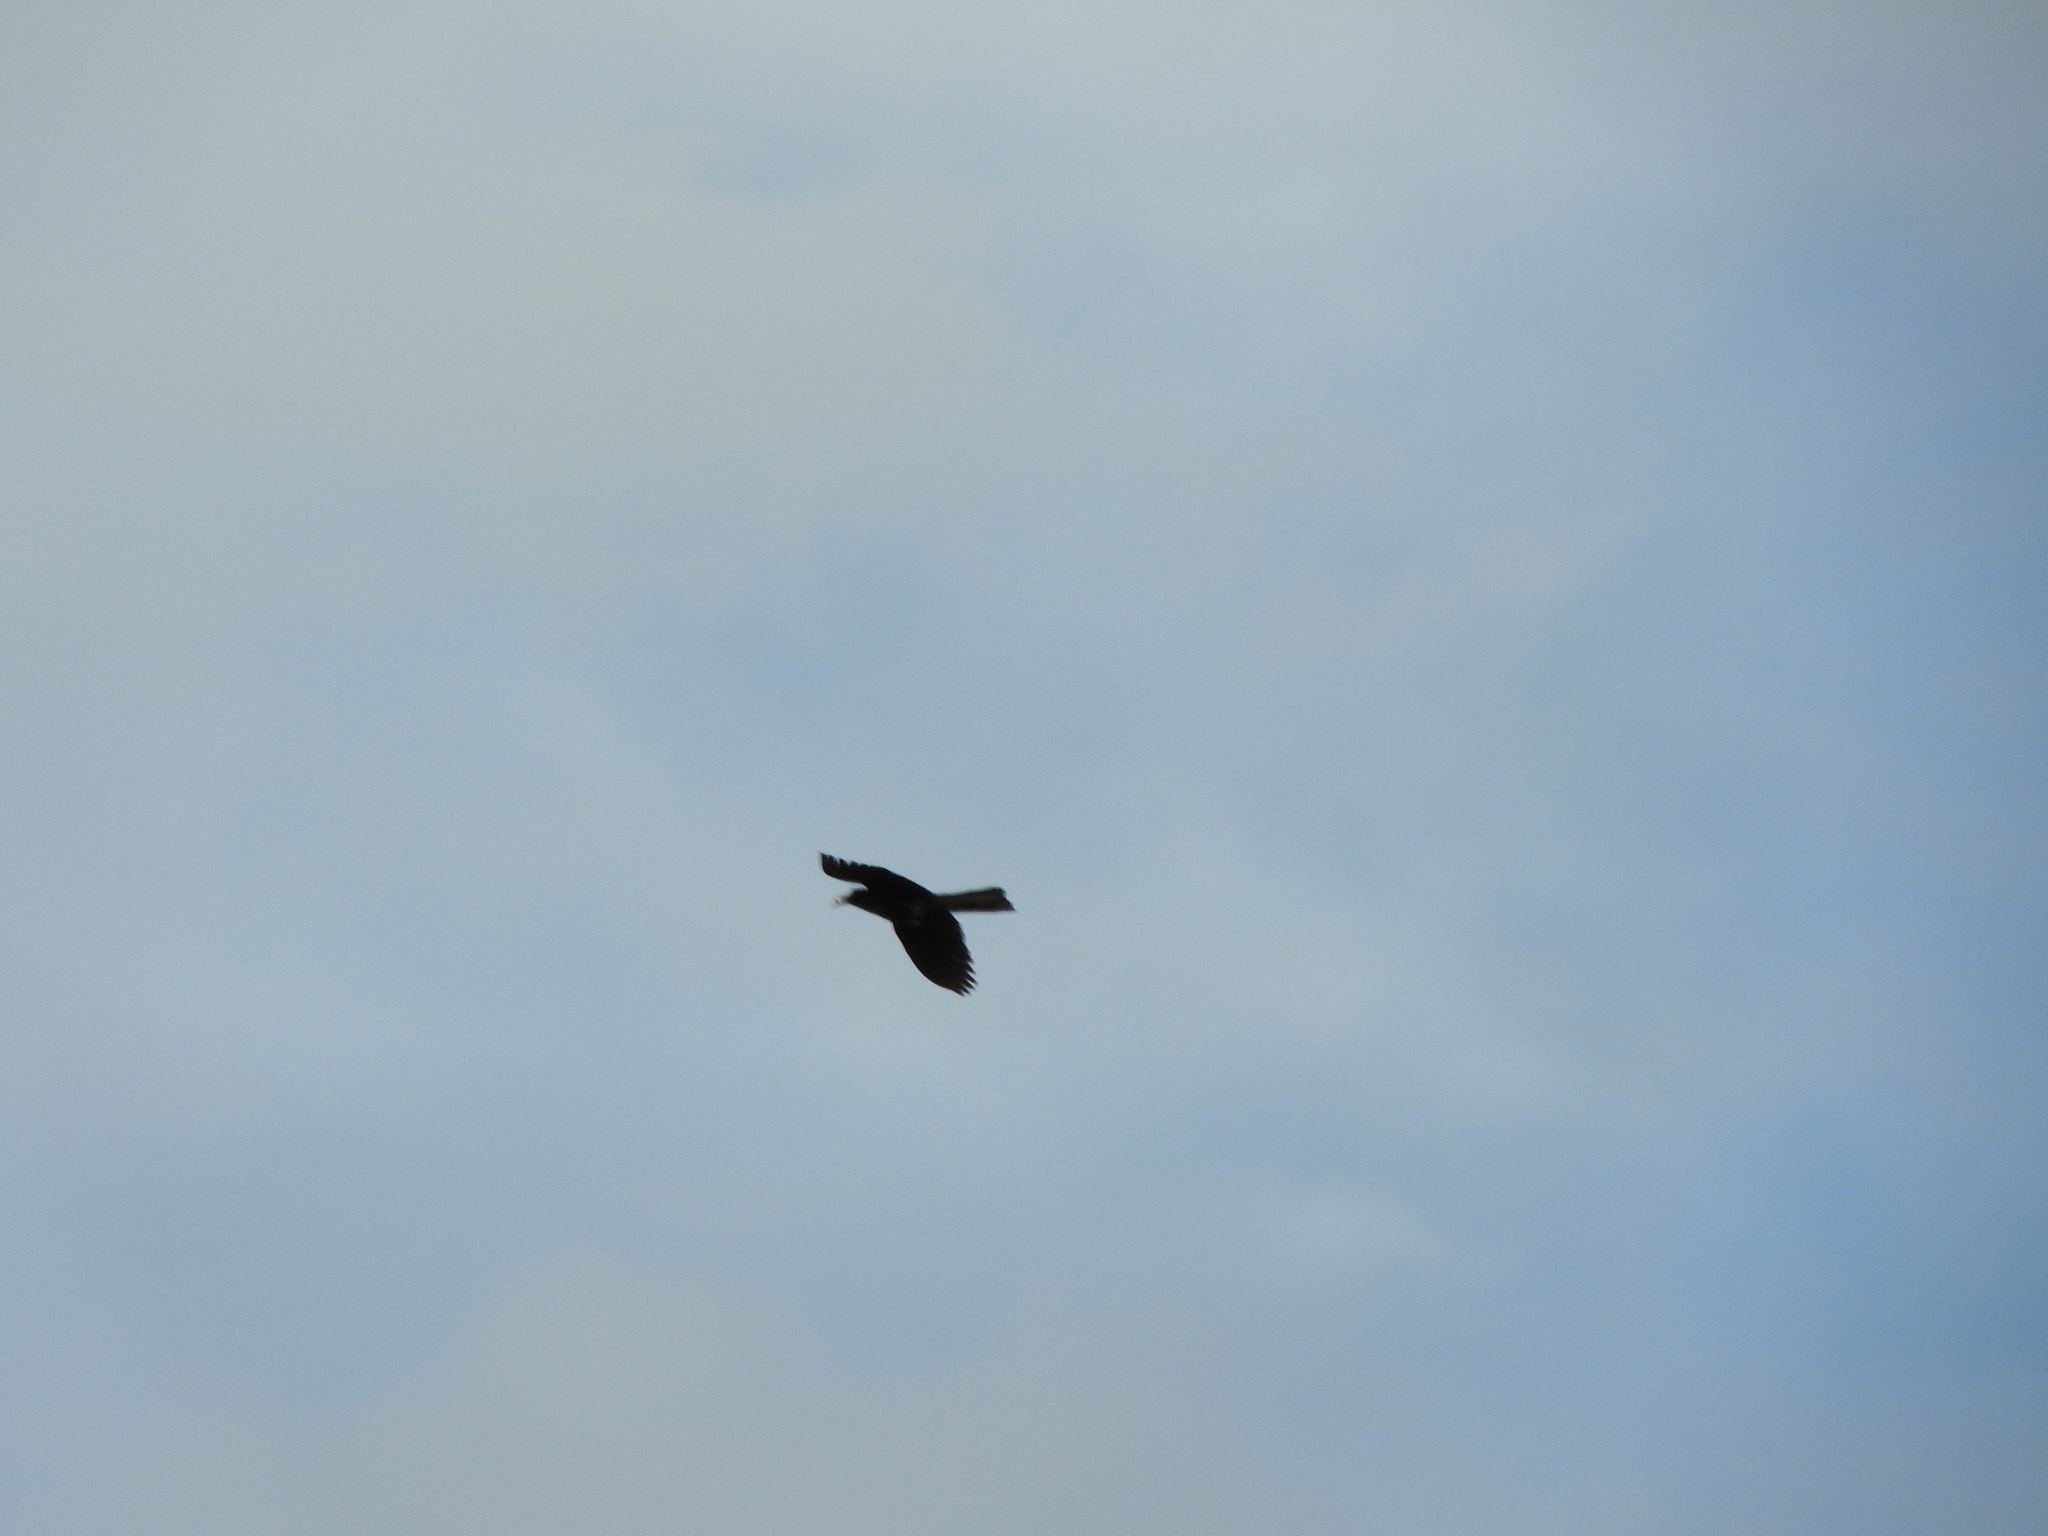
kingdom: Animalia
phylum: Chordata
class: Aves
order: Passeriformes
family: Icteridae
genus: Quiscalus
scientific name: Quiscalus mexicanus
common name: Great-tailed grackle
